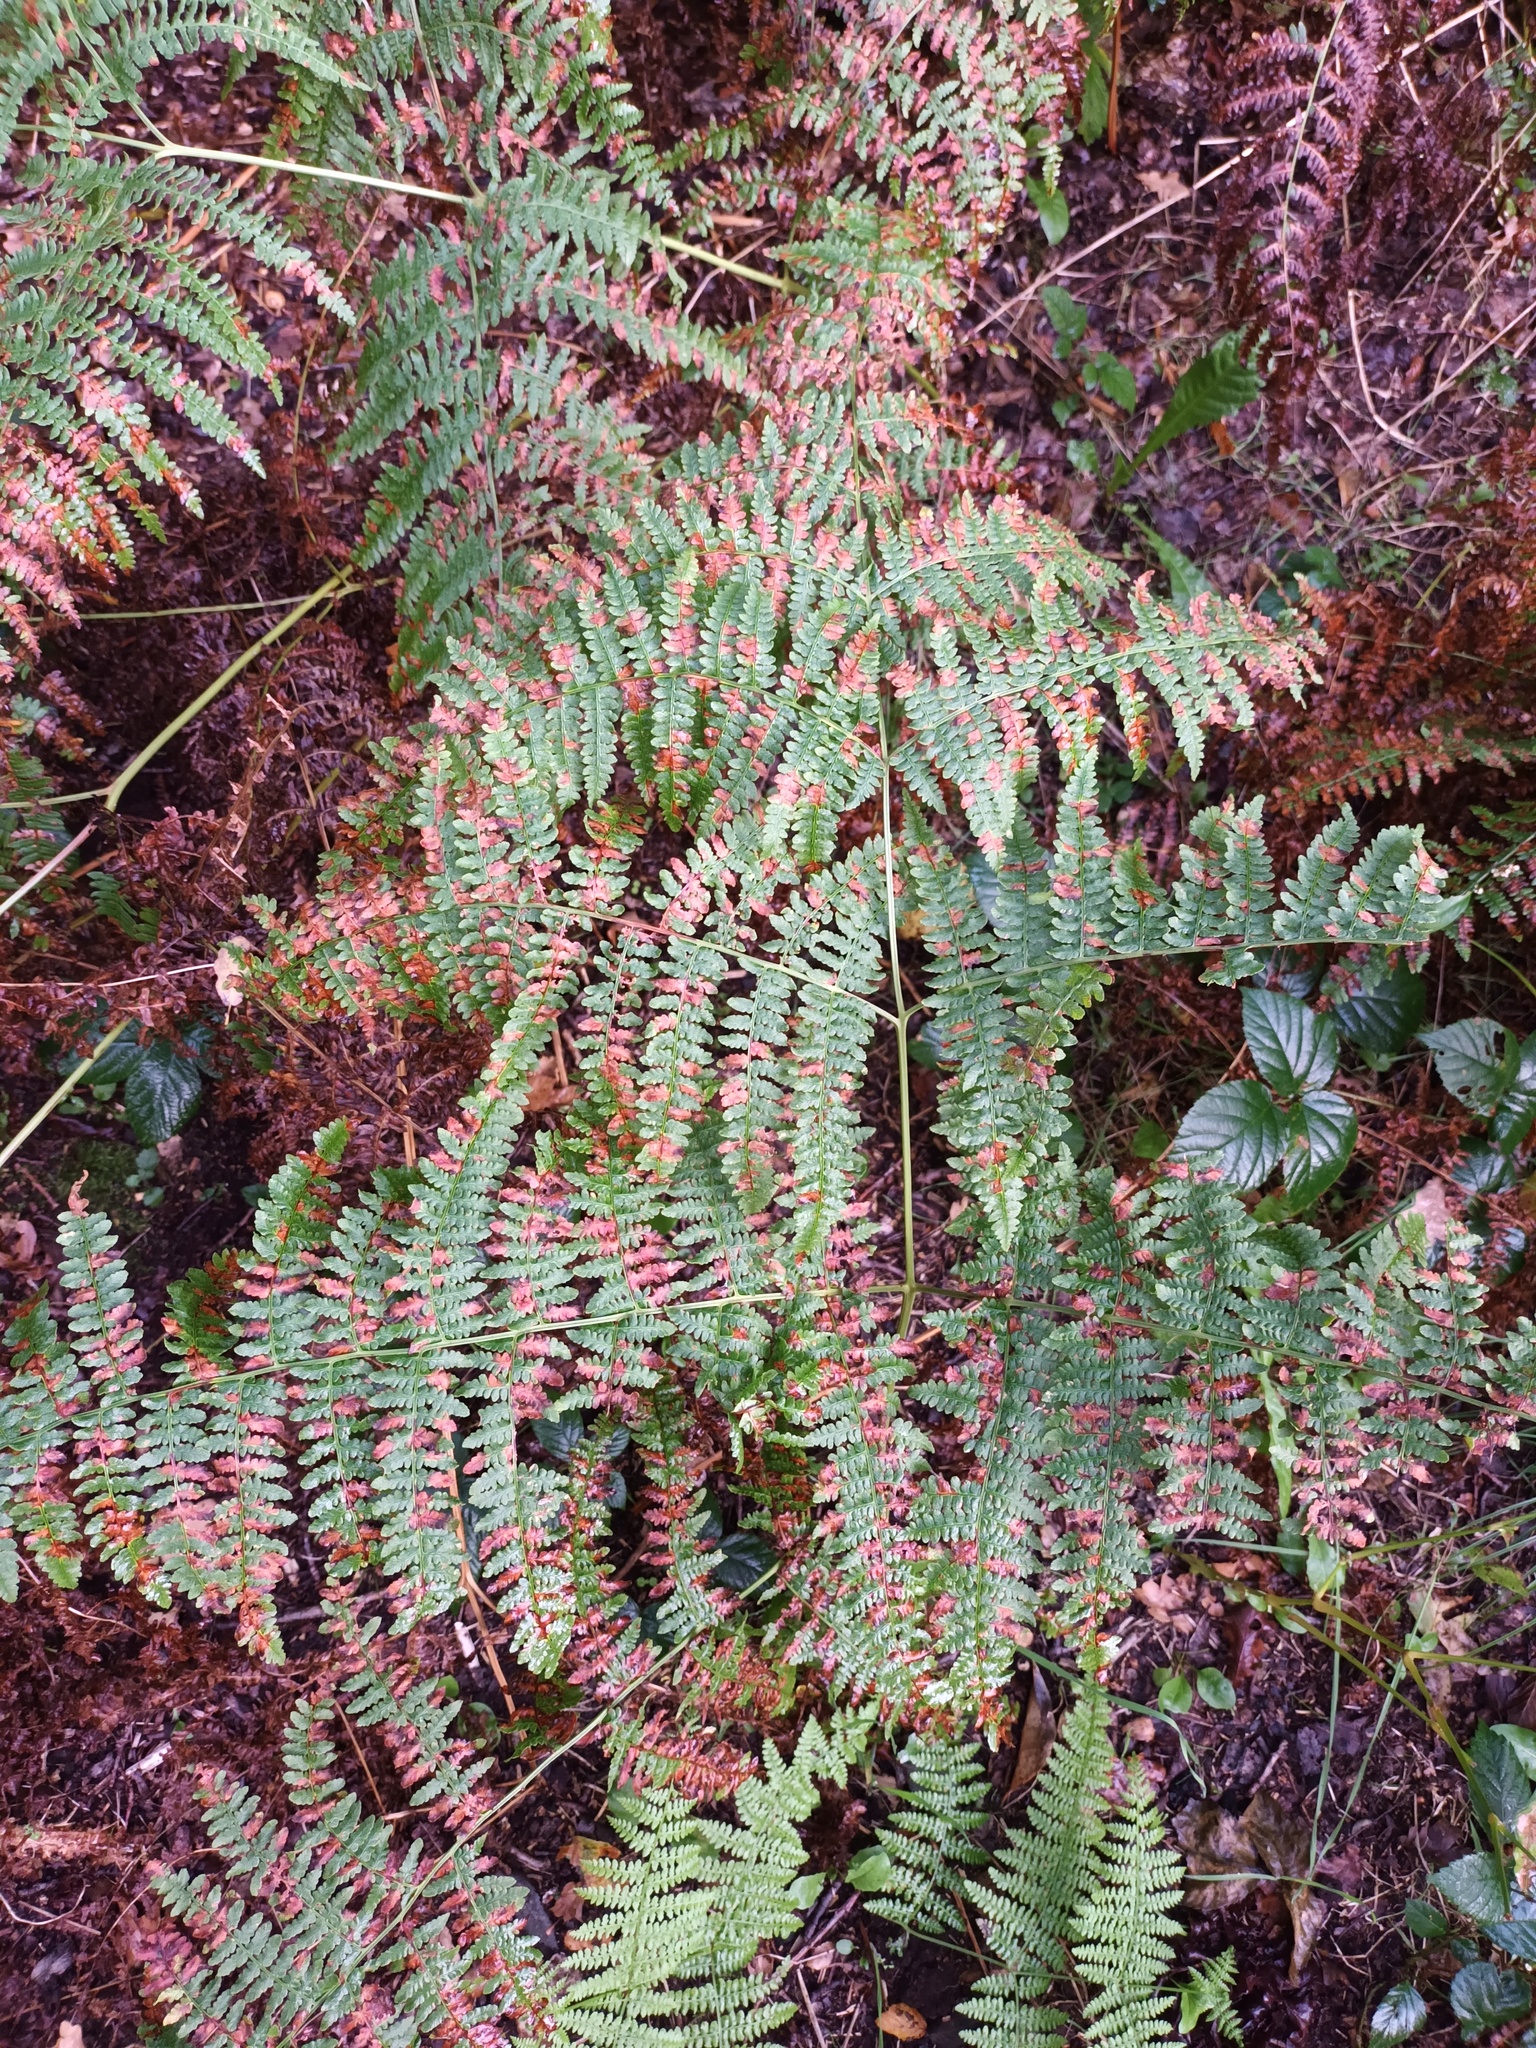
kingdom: Plantae
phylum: Tracheophyta
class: Polypodiopsida
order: Polypodiales
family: Dennstaedtiaceae
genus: Pteridium
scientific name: Pteridium aquilinum
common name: Bracken
